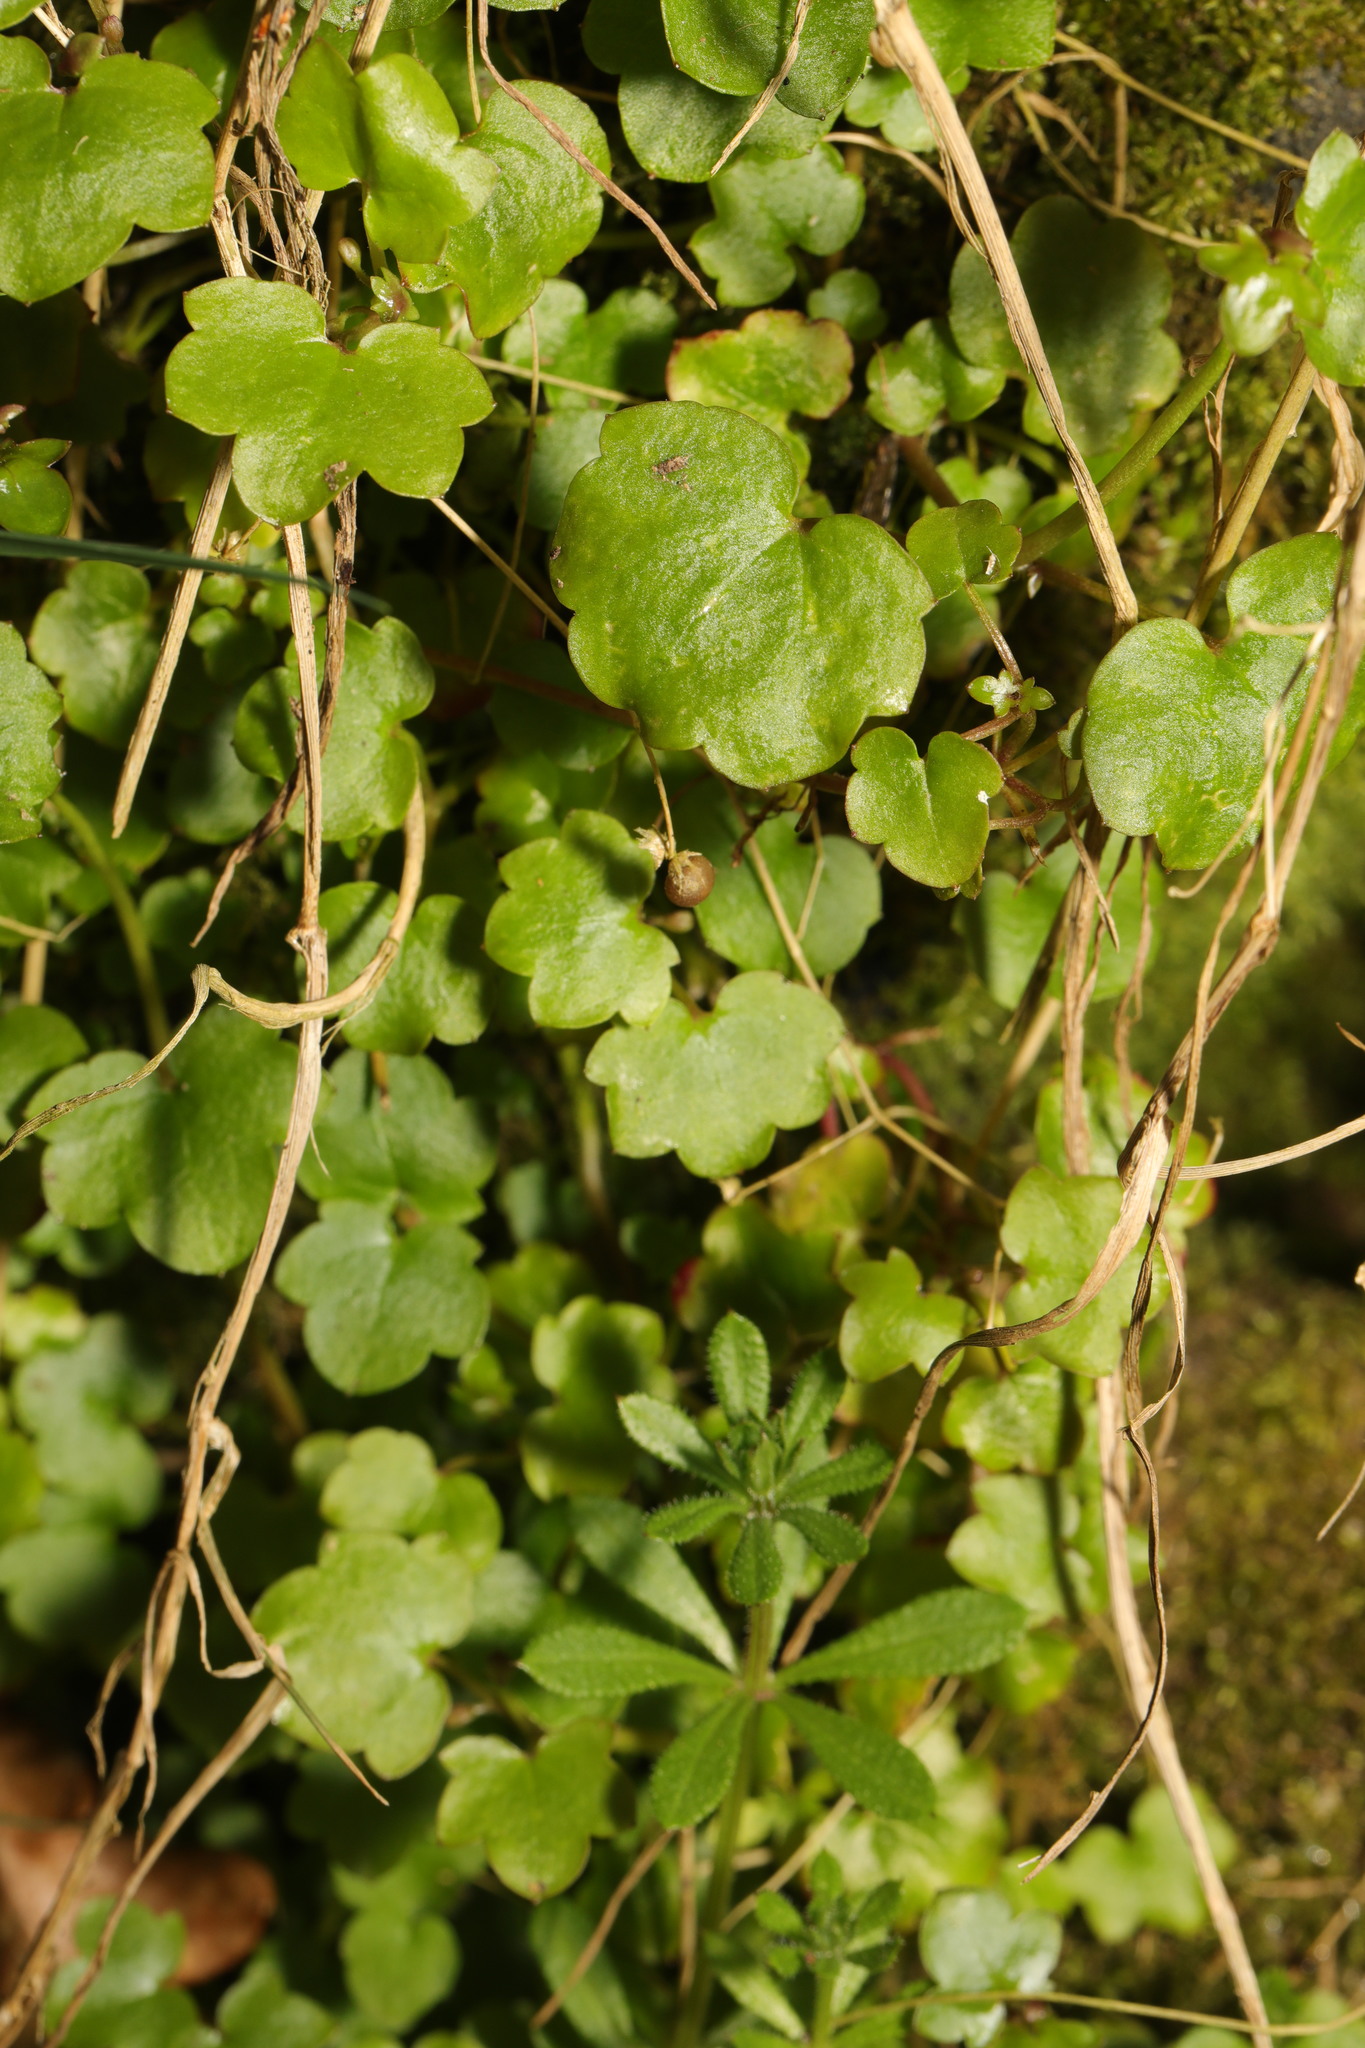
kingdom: Plantae
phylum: Tracheophyta
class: Magnoliopsida
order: Lamiales
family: Plantaginaceae
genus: Cymbalaria
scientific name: Cymbalaria muralis
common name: Ivy-leaved toadflax
